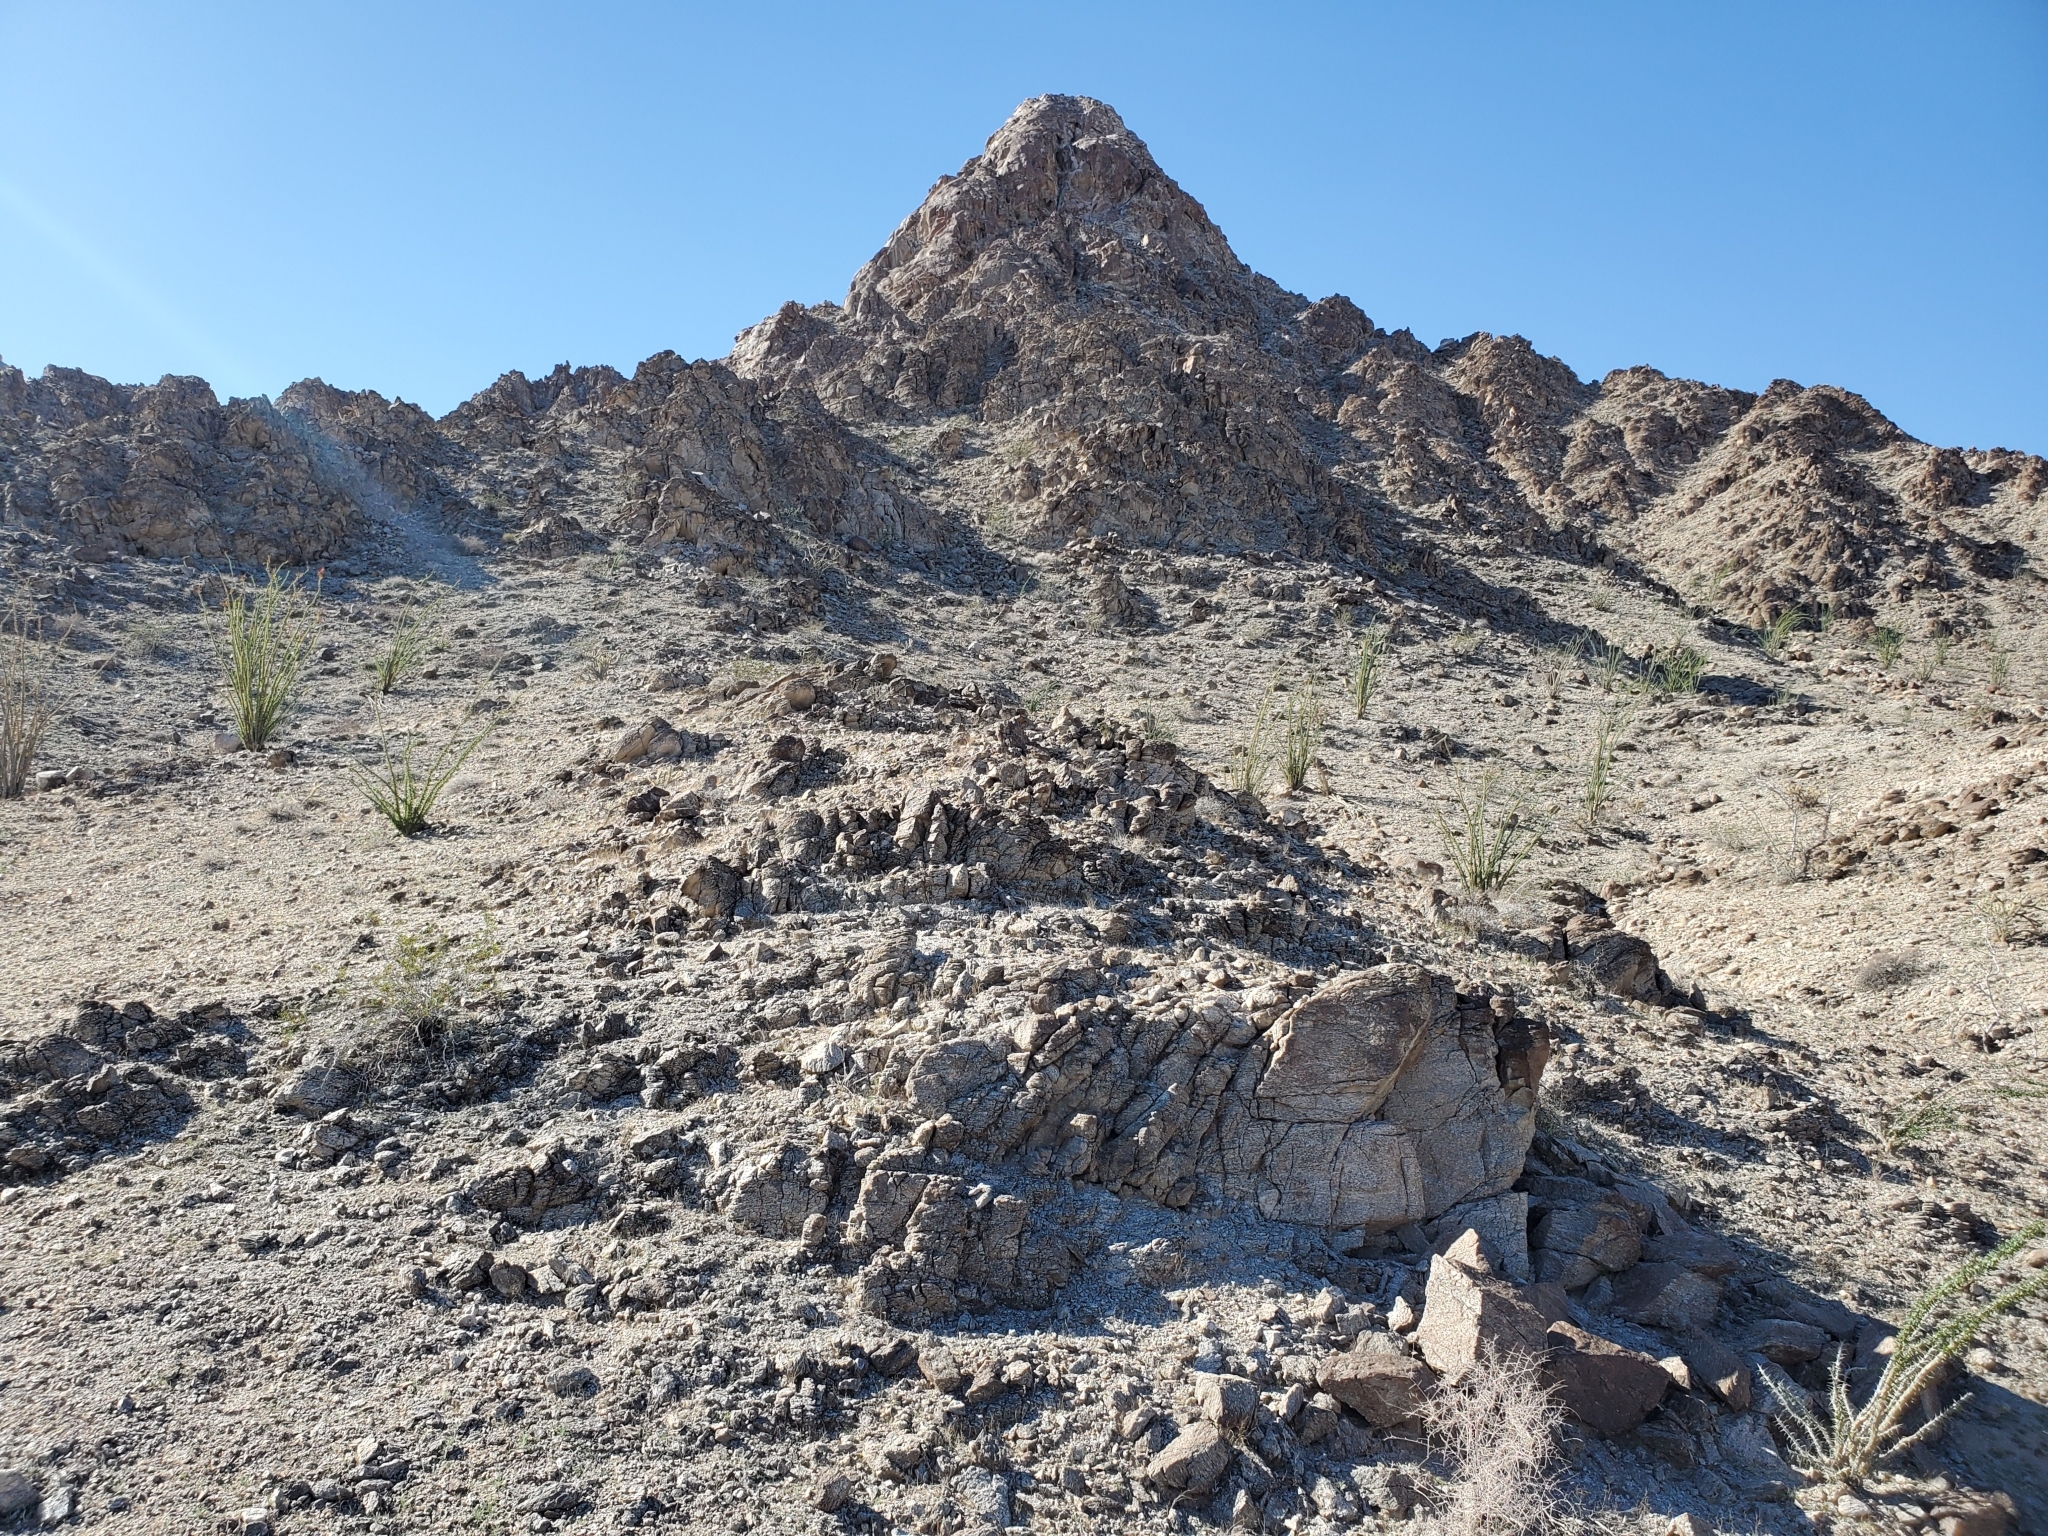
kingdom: Plantae
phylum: Tracheophyta
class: Magnoliopsida
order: Ericales
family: Fouquieriaceae
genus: Fouquieria
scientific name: Fouquieria splendens
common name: Vine-cactus
